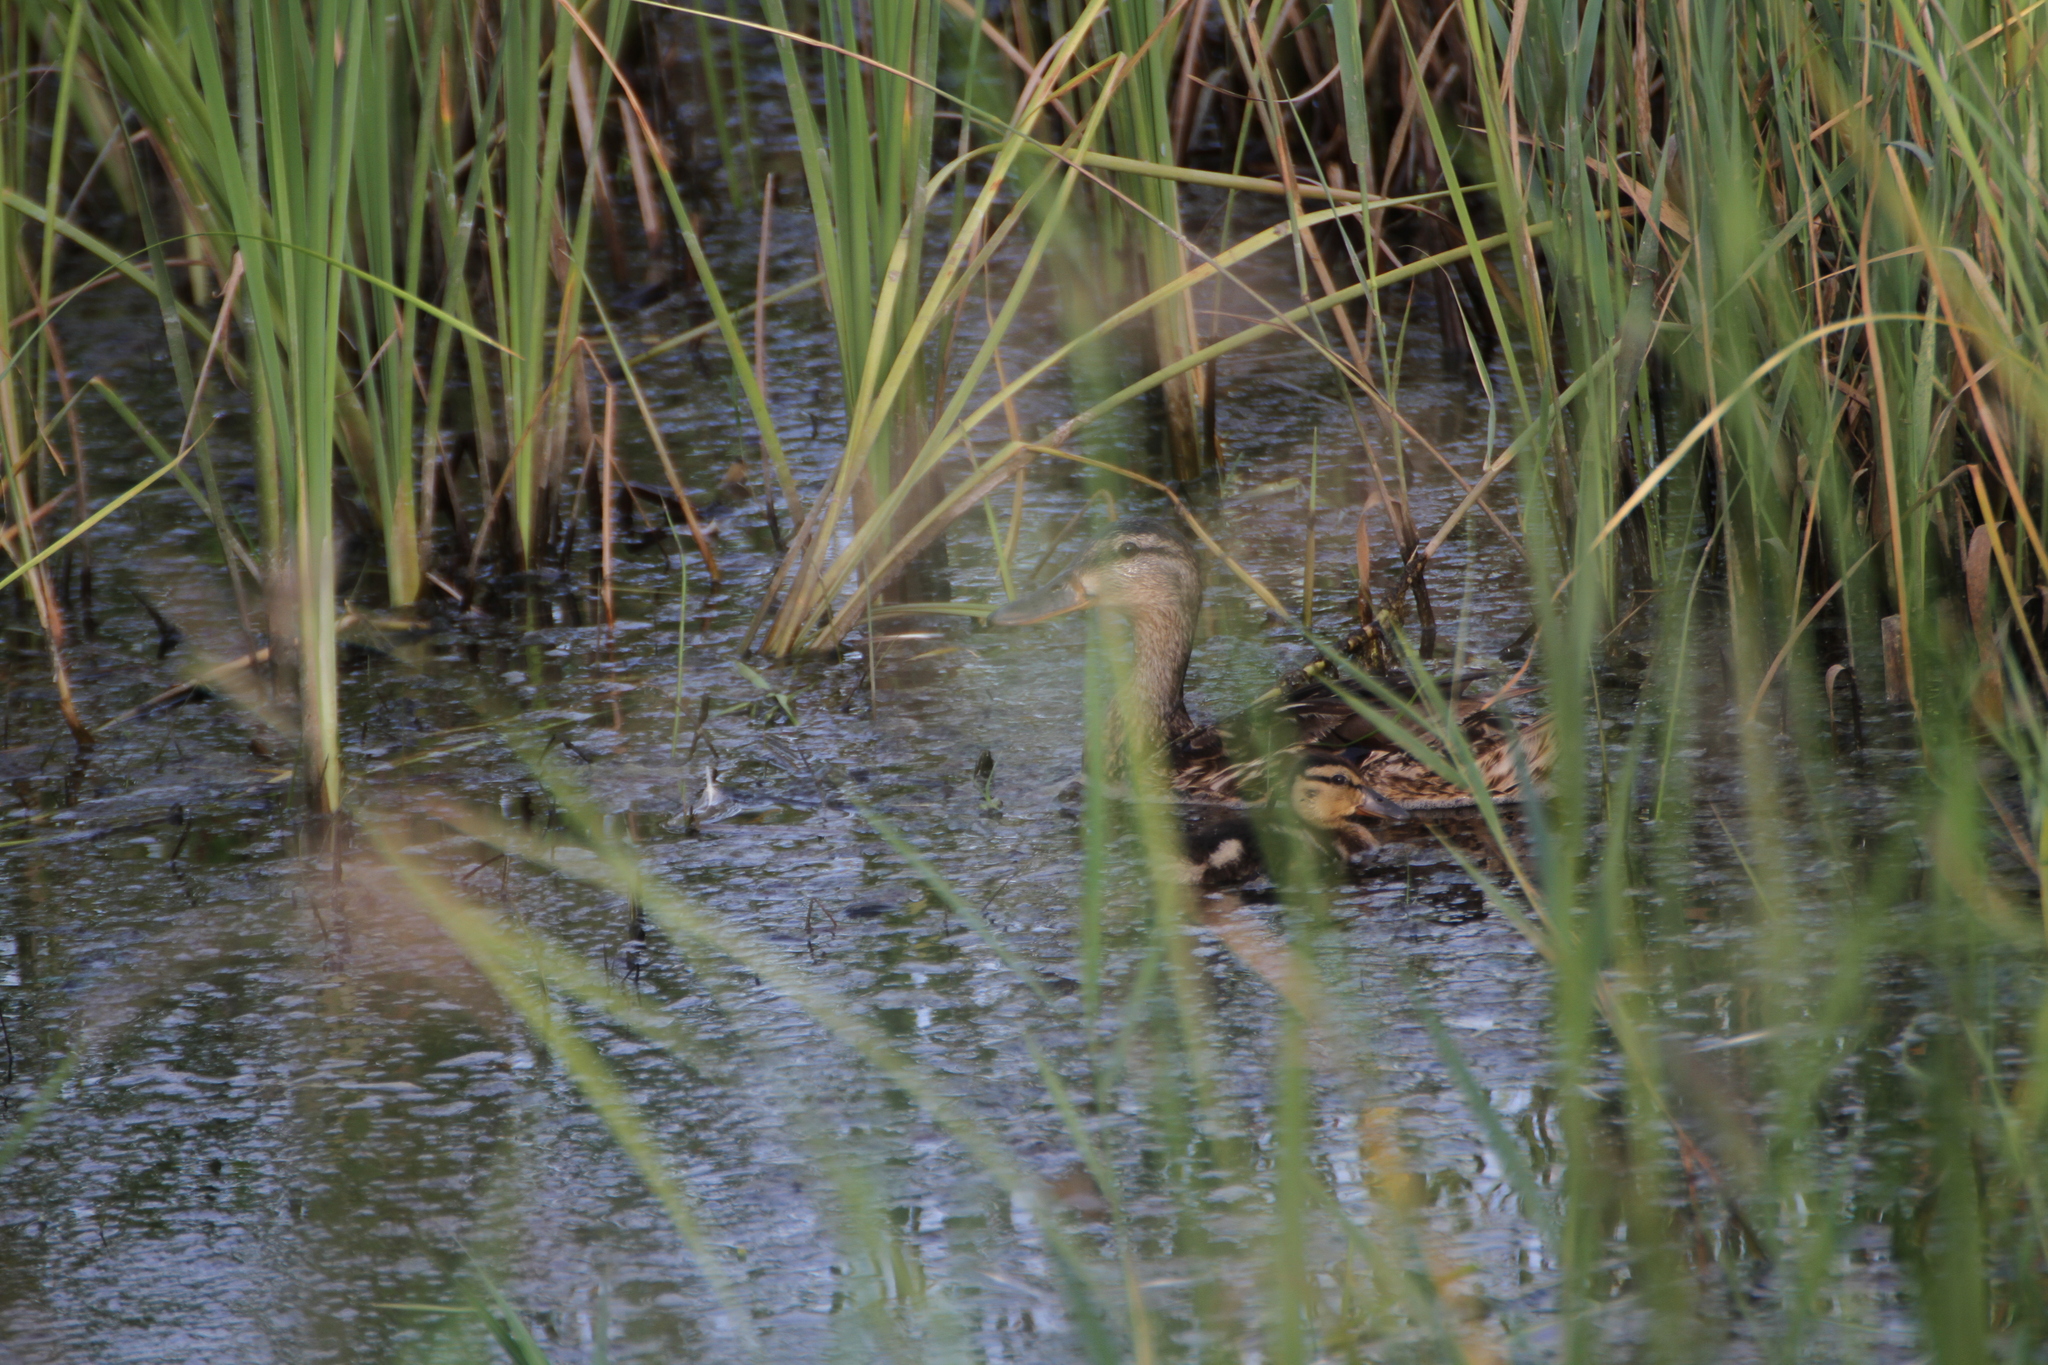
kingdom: Animalia
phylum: Chordata
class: Aves
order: Anseriformes
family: Anatidae
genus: Anas
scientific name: Anas platyrhynchos
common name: Mallard
